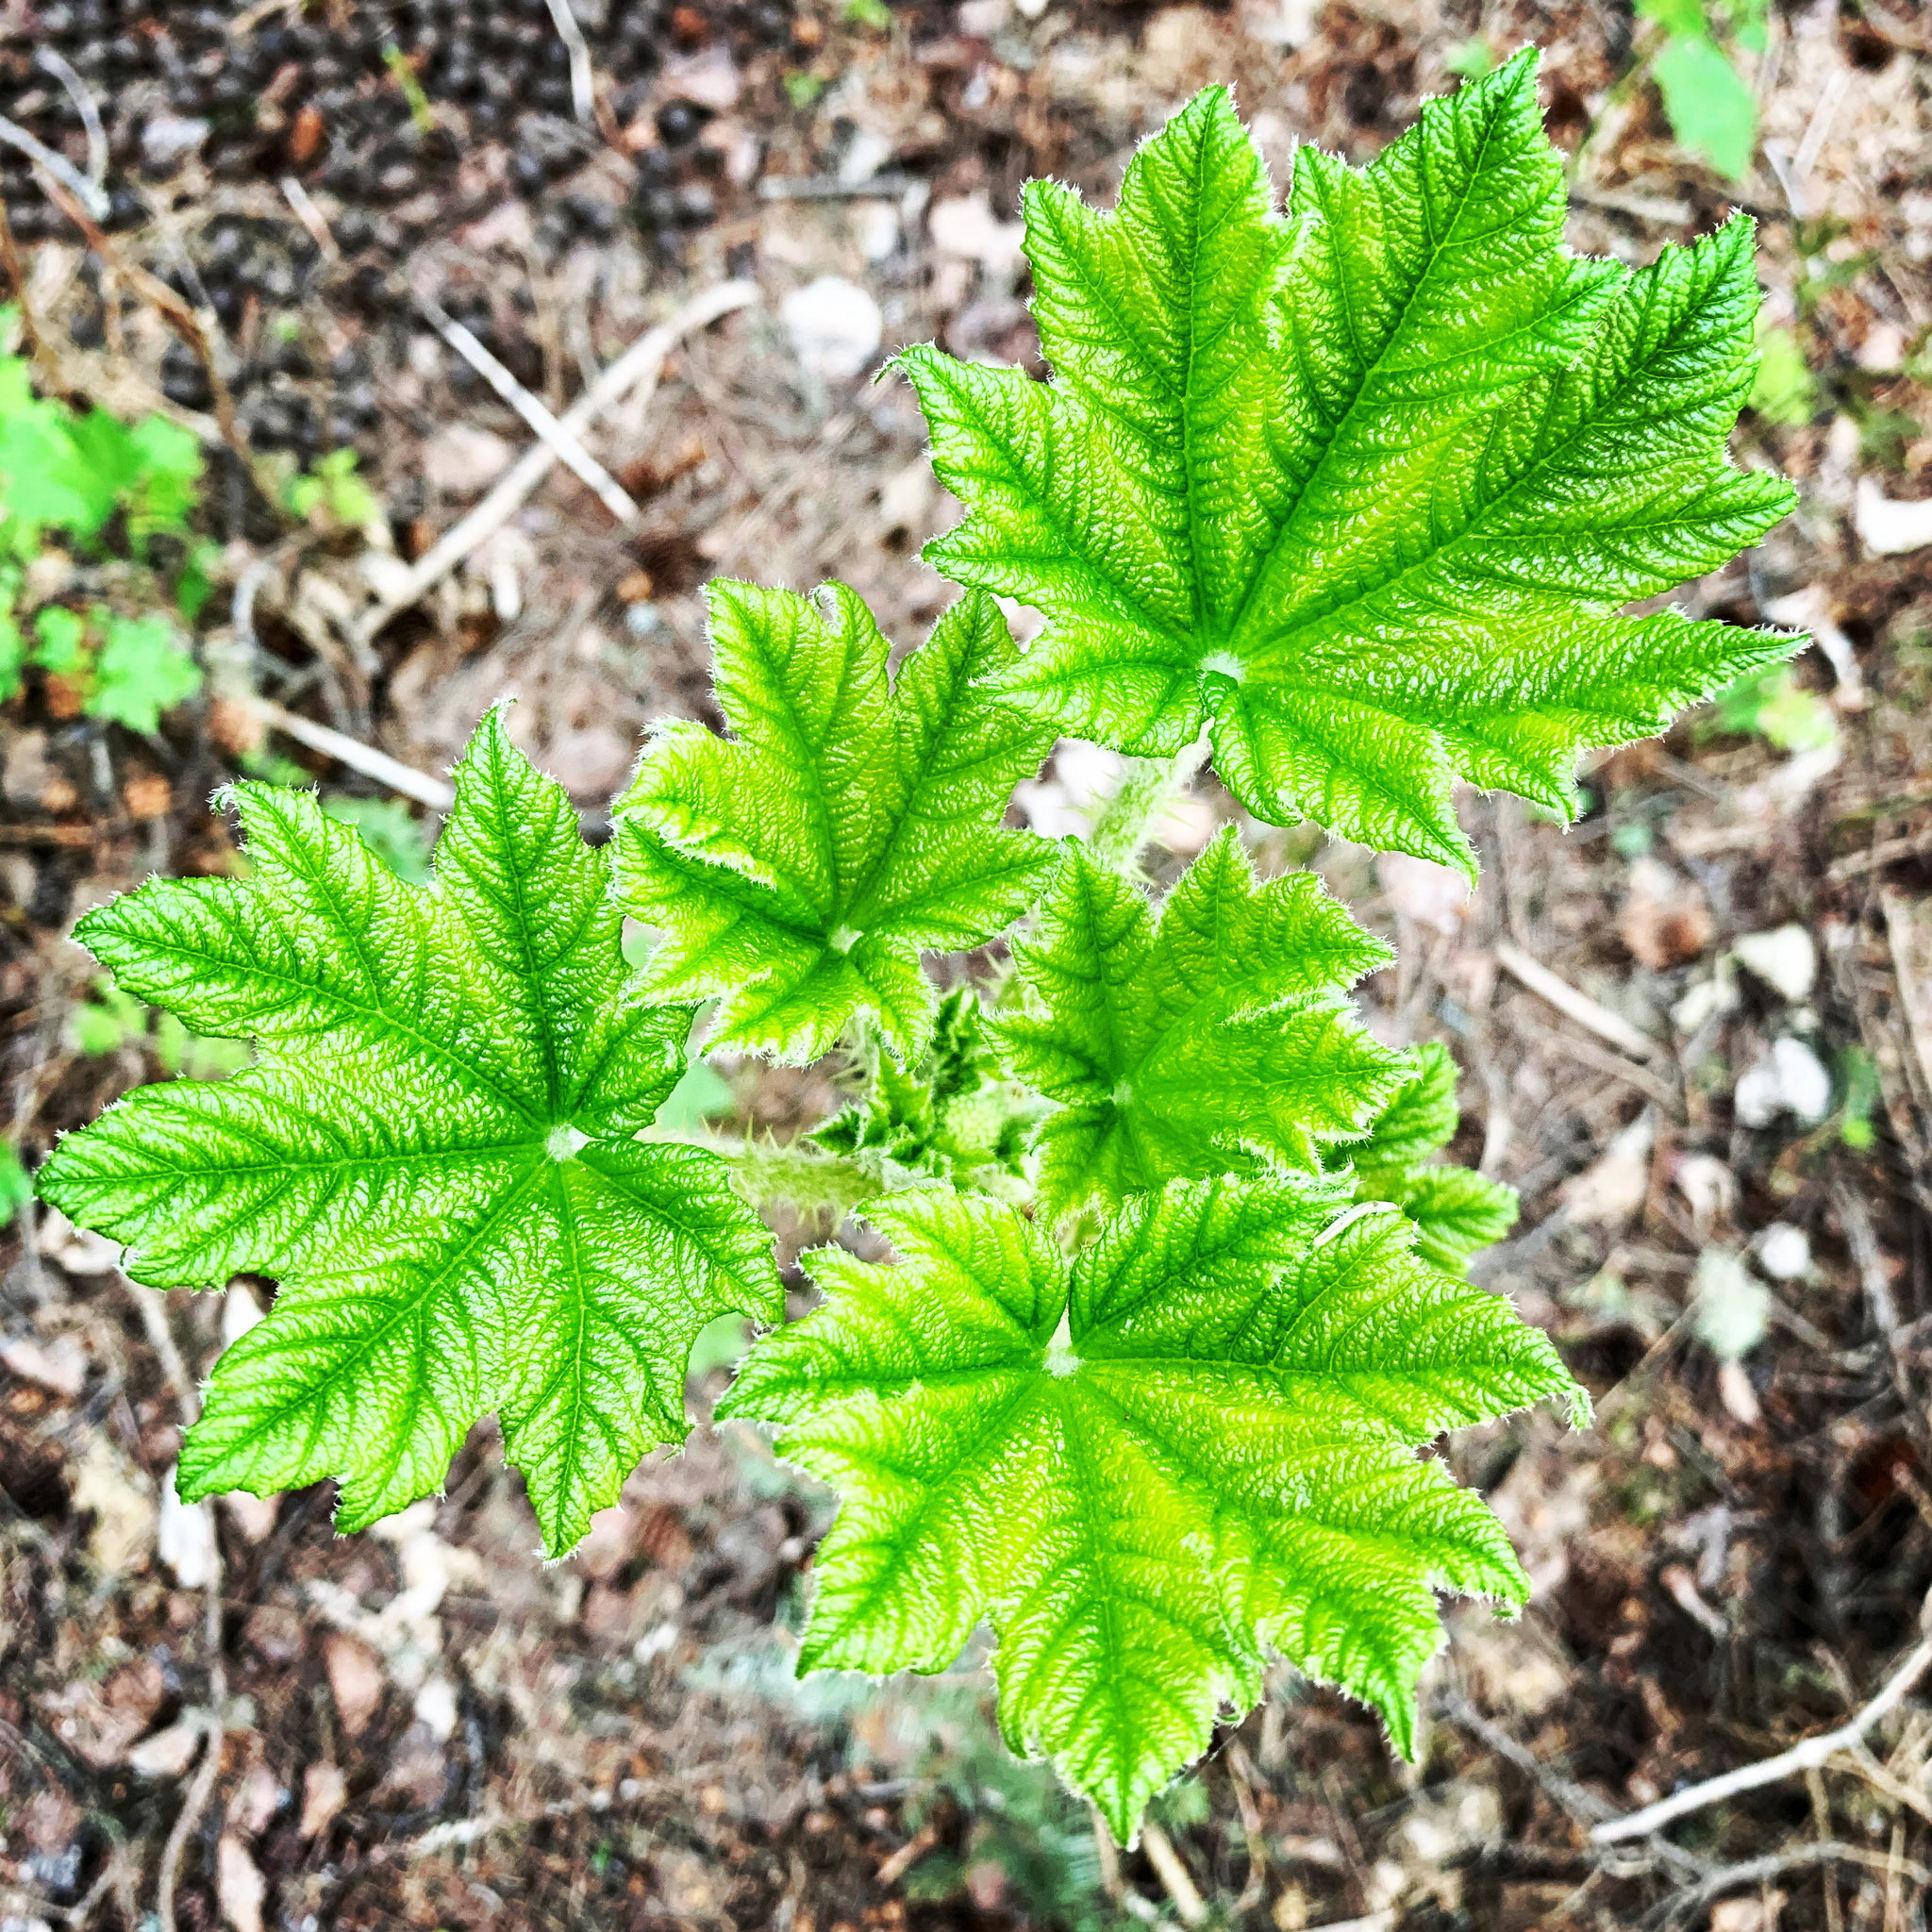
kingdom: Plantae
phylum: Tracheophyta
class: Magnoliopsida
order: Apiales
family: Araliaceae
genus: Oplopanax
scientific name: Oplopanax horridus
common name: Devil's walking-stick
